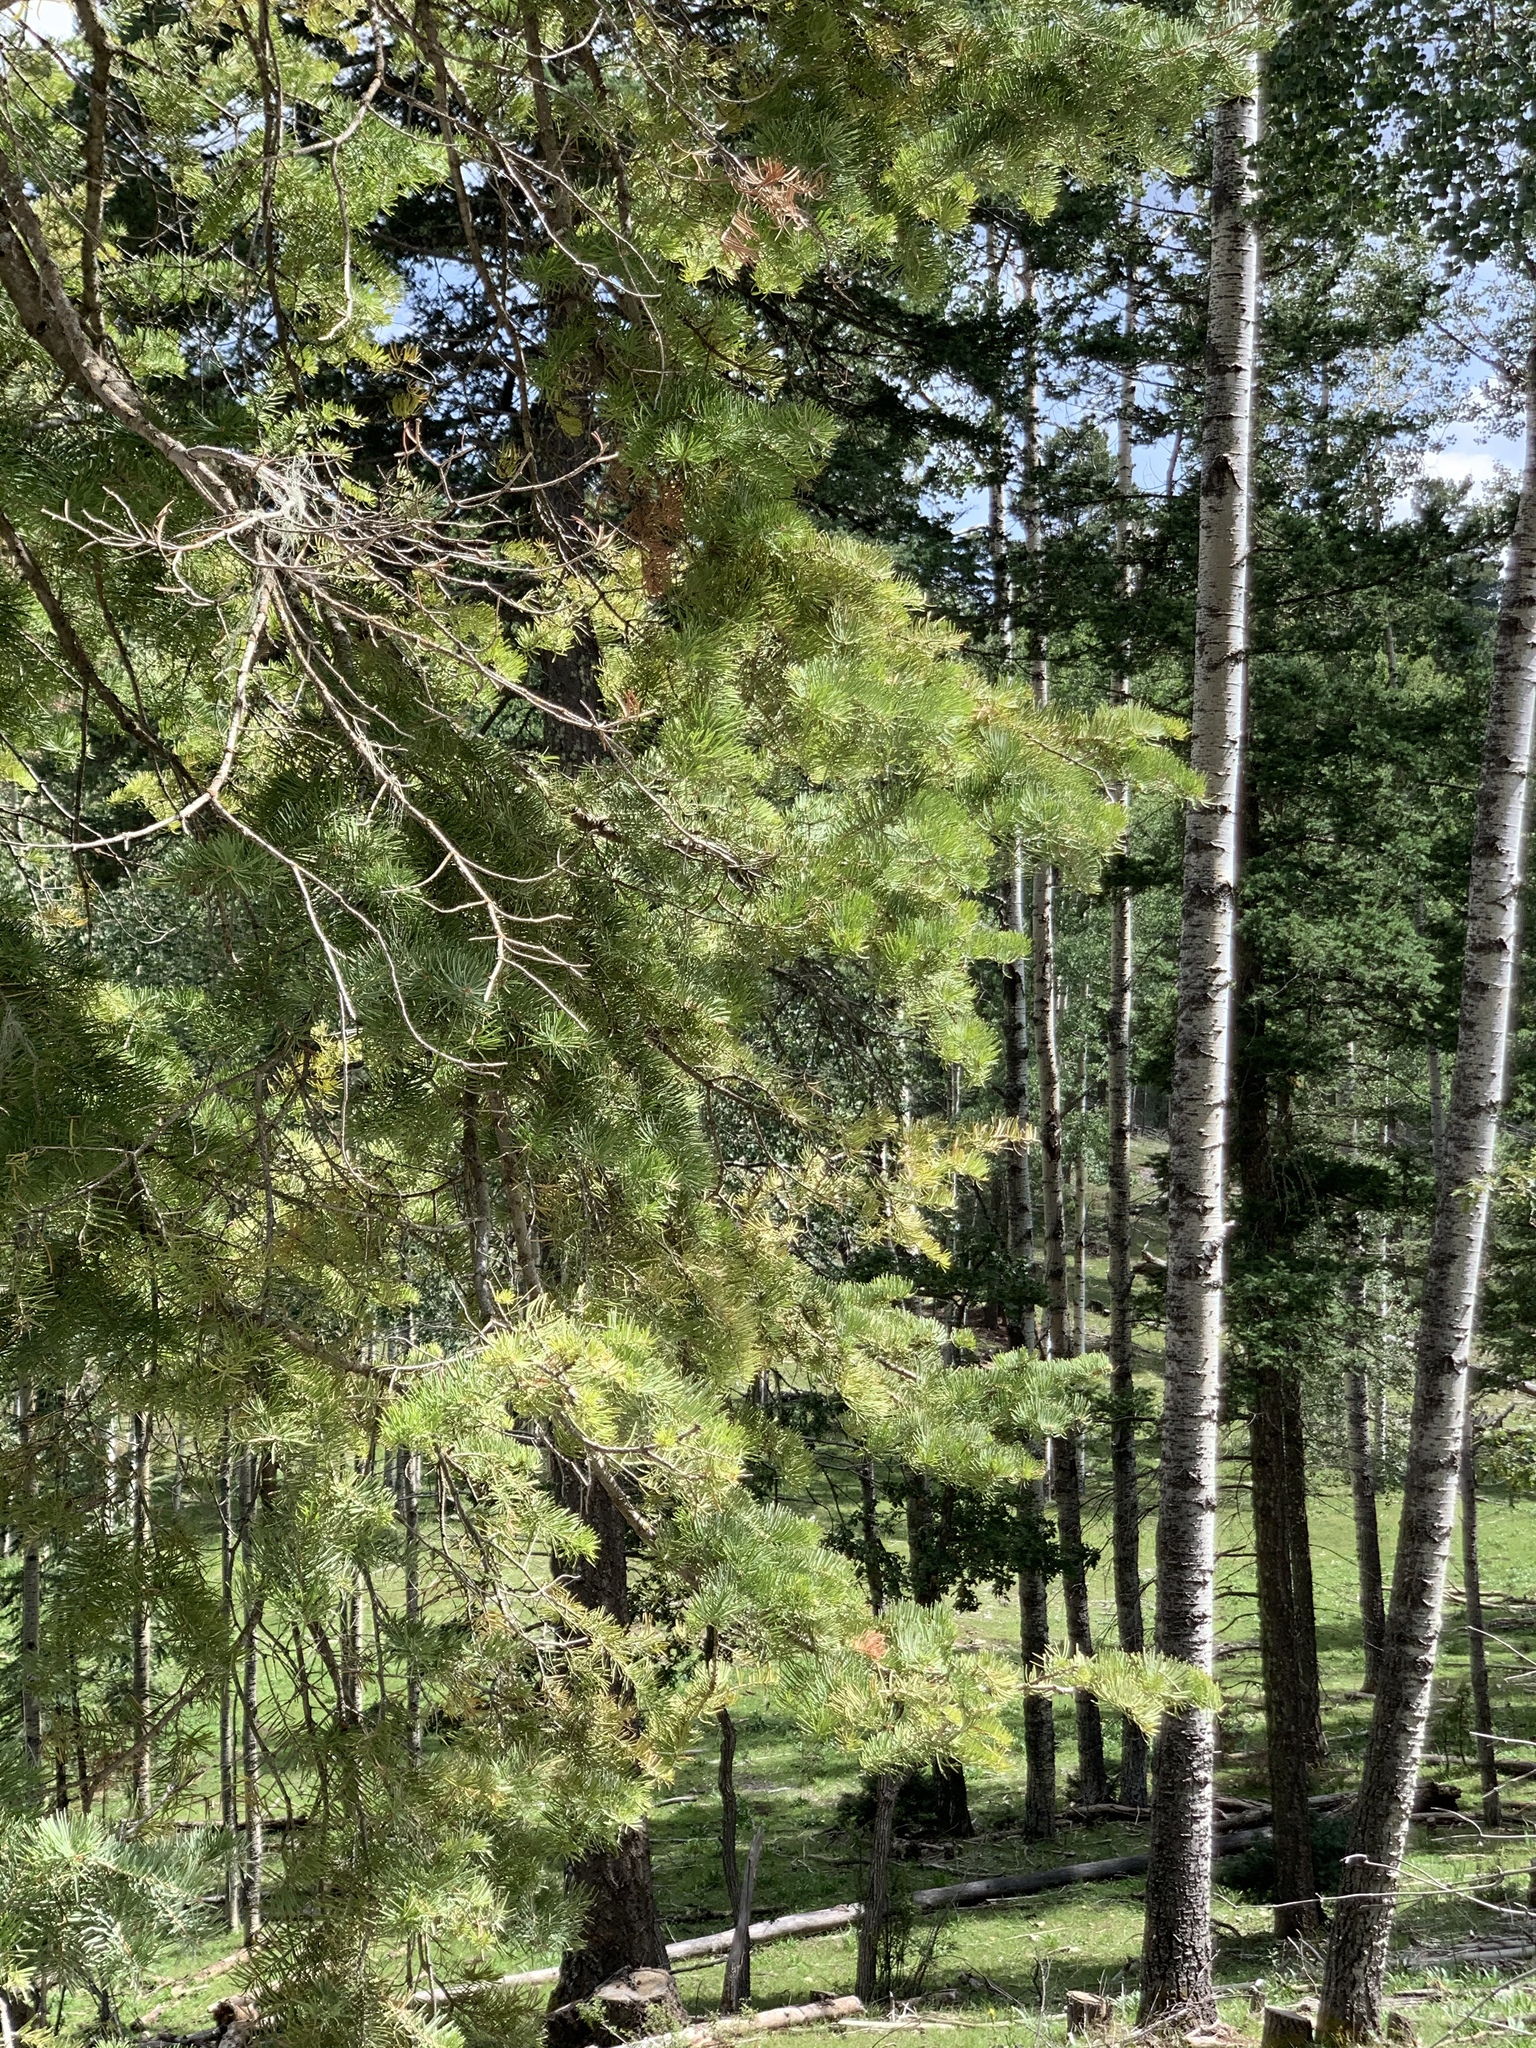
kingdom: Plantae
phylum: Tracheophyta
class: Pinopsida
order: Pinales
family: Pinaceae
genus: Abies
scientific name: Abies concolor
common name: Colorado fir
